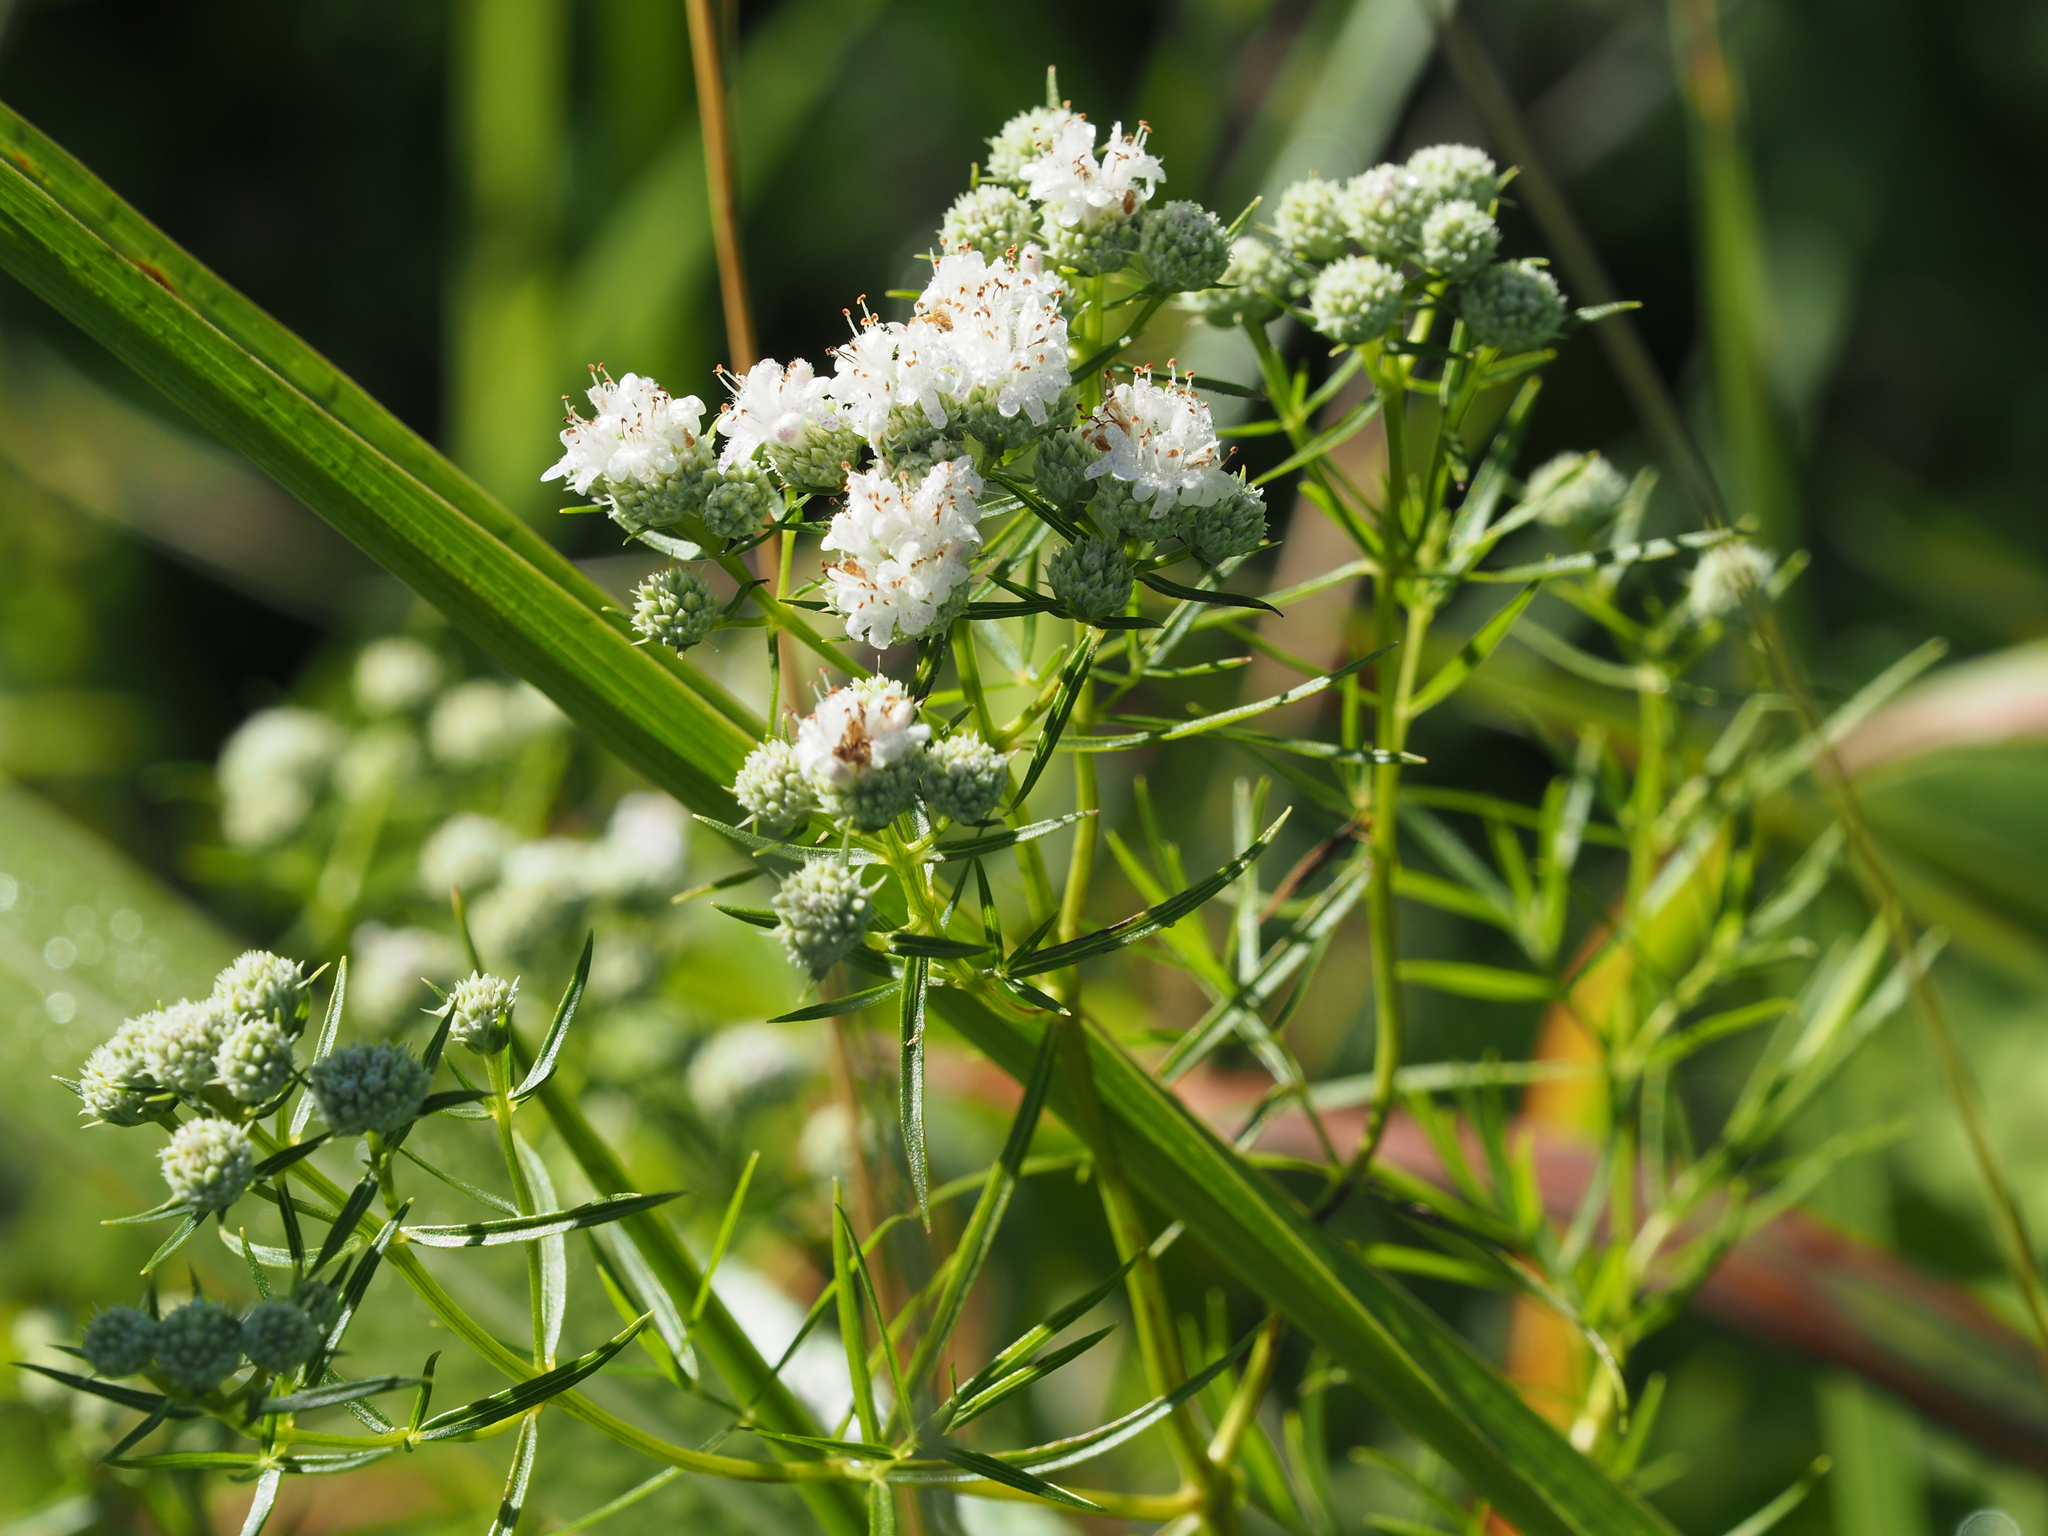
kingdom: Plantae
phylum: Tracheophyta
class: Magnoliopsida
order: Lamiales
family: Lamiaceae
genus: Pycnanthemum
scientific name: Pycnanthemum tenuifolium
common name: Narrow-leaf mountain-mint
